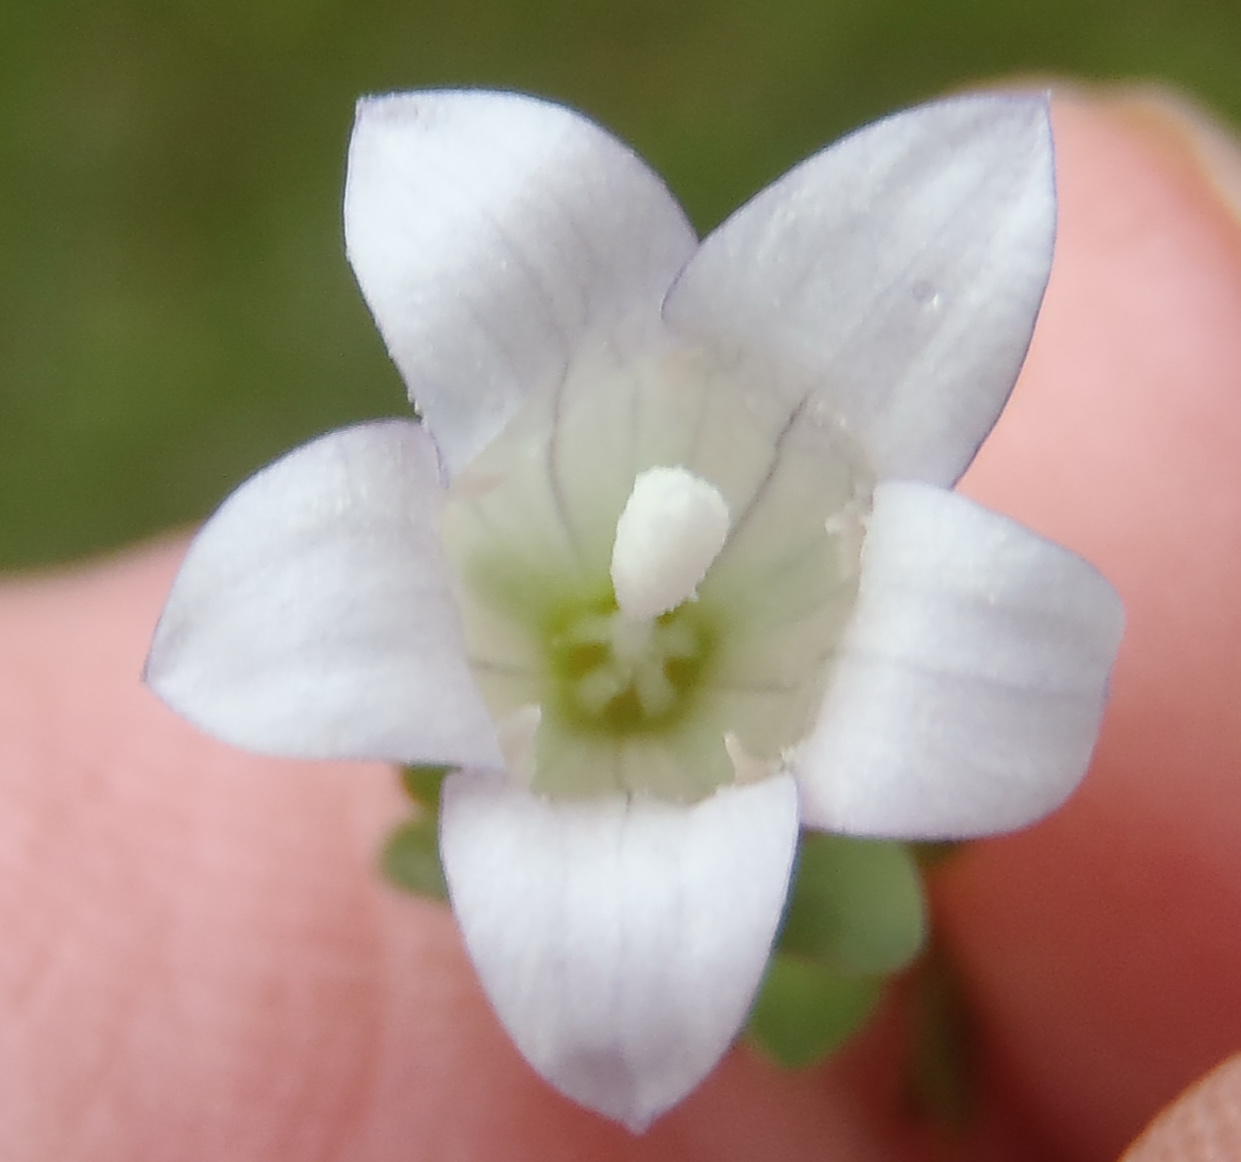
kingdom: Plantae
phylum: Tracheophyta
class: Magnoliopsida
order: Asterales
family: Campanulaceae
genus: Wahlenbergia
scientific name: Wahlenbergia procumbens
